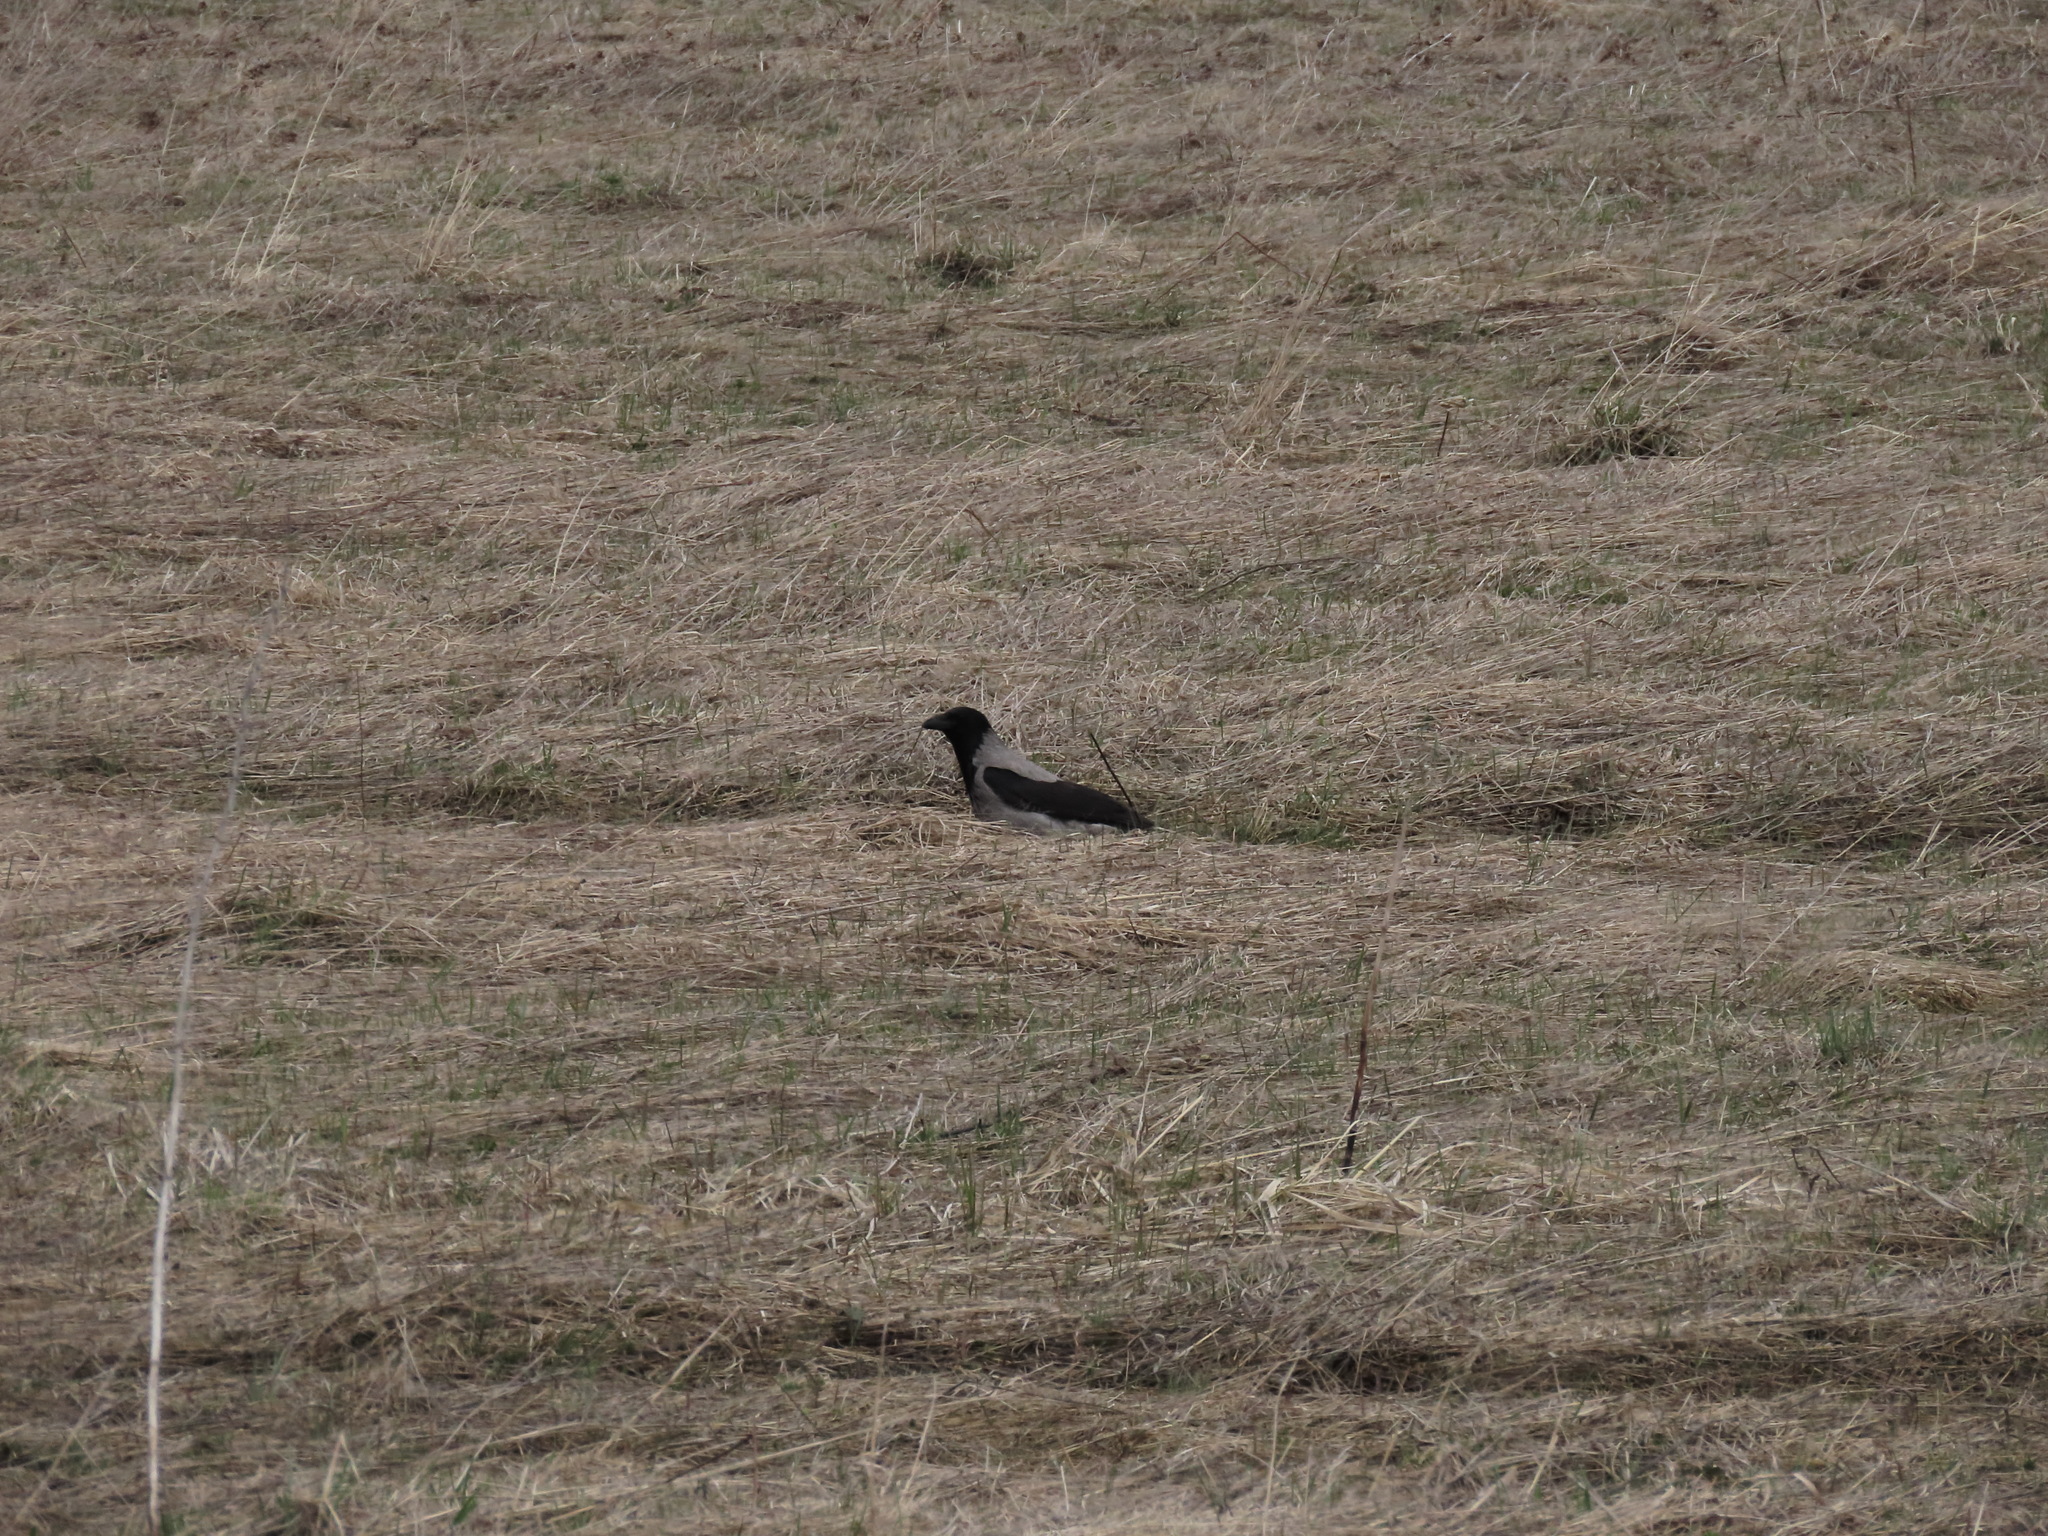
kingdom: Animalia
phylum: Chordata
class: Aves
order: Passeriformes
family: Corvidae
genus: Corvus
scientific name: Corvus cornix
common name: Hooded crow
